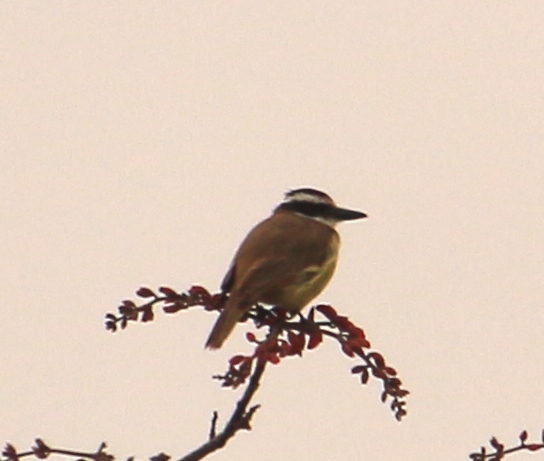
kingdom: Animalia
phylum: Chordata
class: Aves
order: Passeriformes
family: Tyrannidae
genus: Pitangus
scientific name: Pitangus sulphuratus
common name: Great kiskadee
